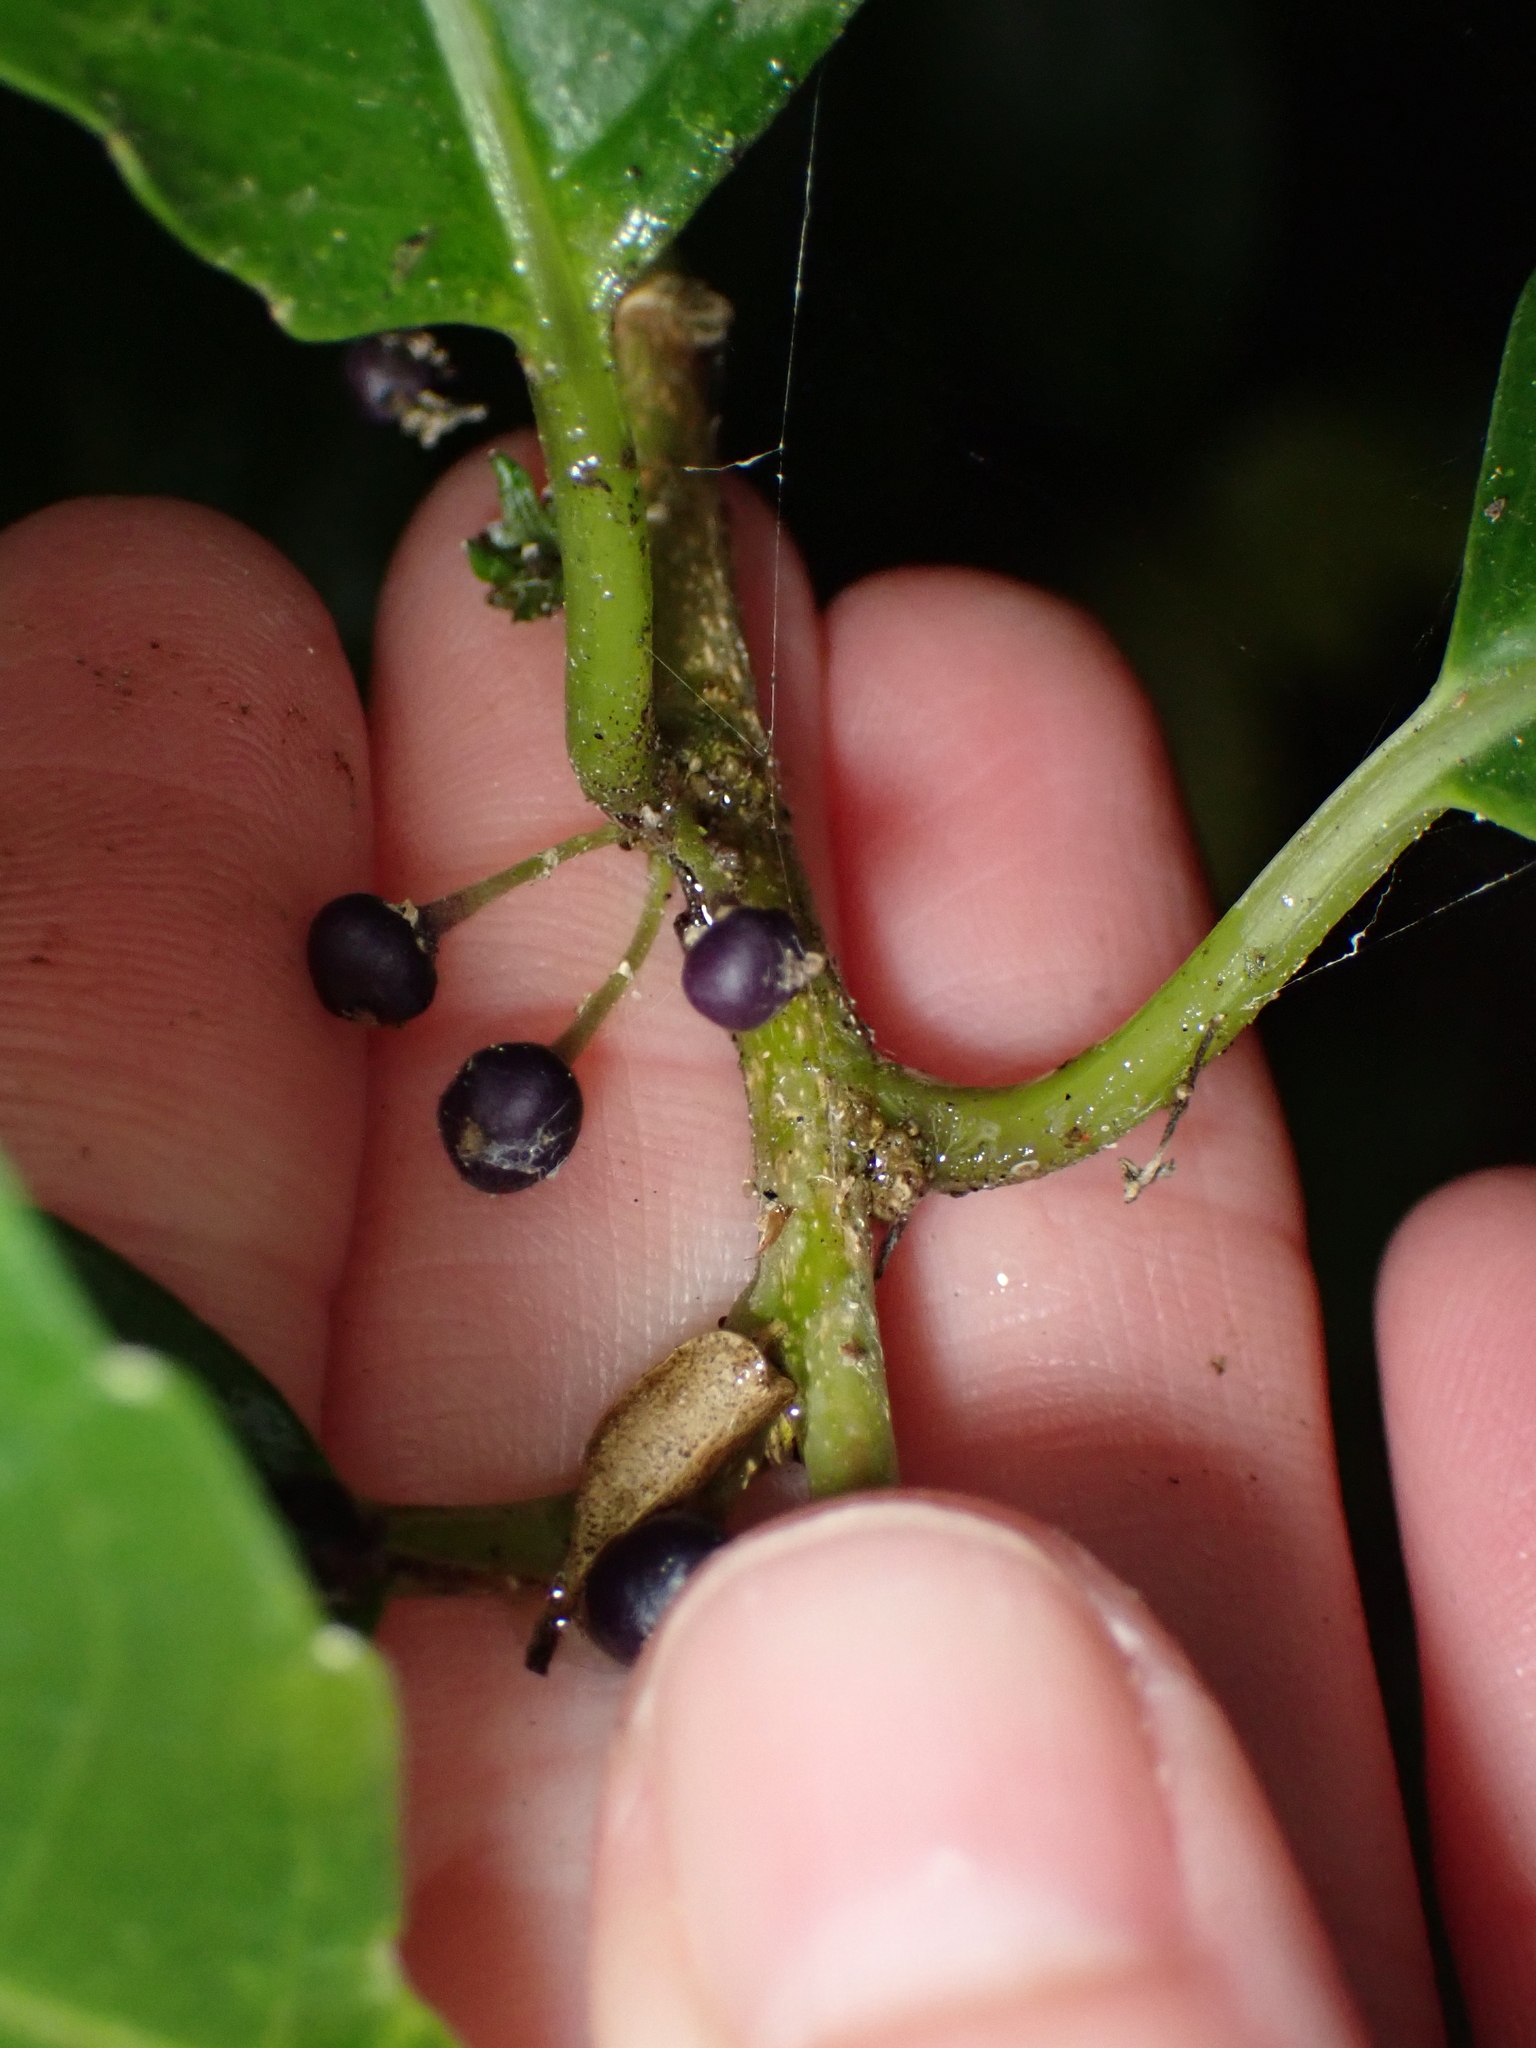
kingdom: Plantae
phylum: Tracheophyta
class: Magnoliopsida
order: Malpighiales
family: Violaceae
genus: Melicytus
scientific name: Melicytus ramiflorus
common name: Mahoe
